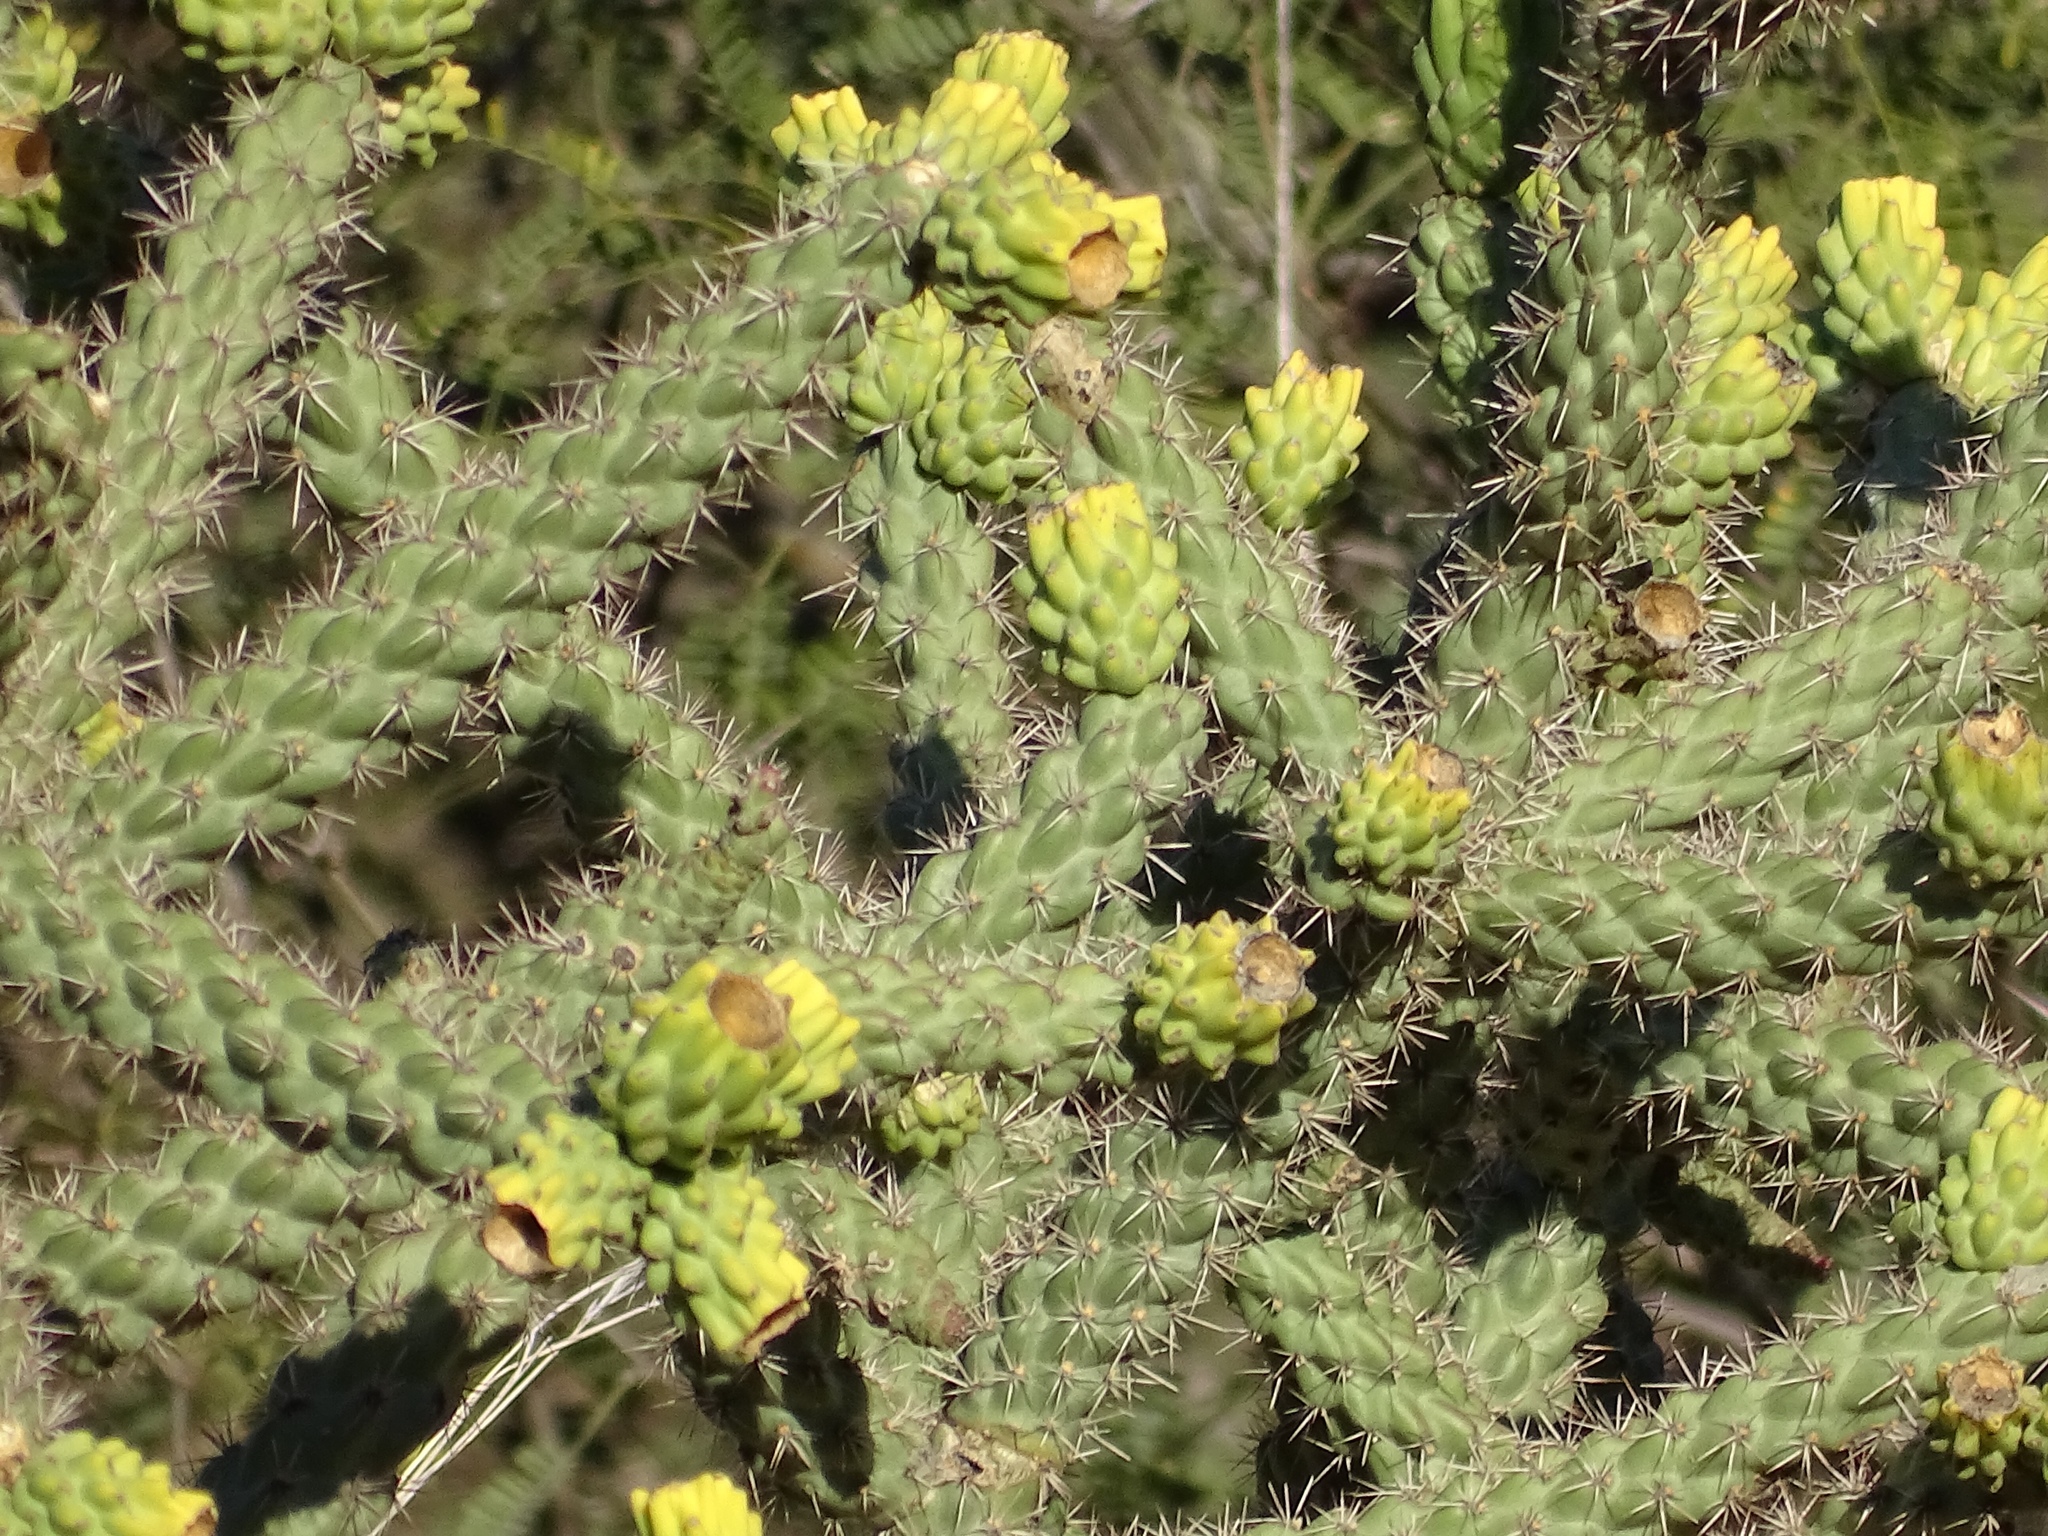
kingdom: Plantae
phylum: Tracheophyta
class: Magnoliopsida
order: Caryophyllales
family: Cactaceae
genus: Cylindropuntia
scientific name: Cylindropuntia imbricata
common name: Candelabrum cactus
